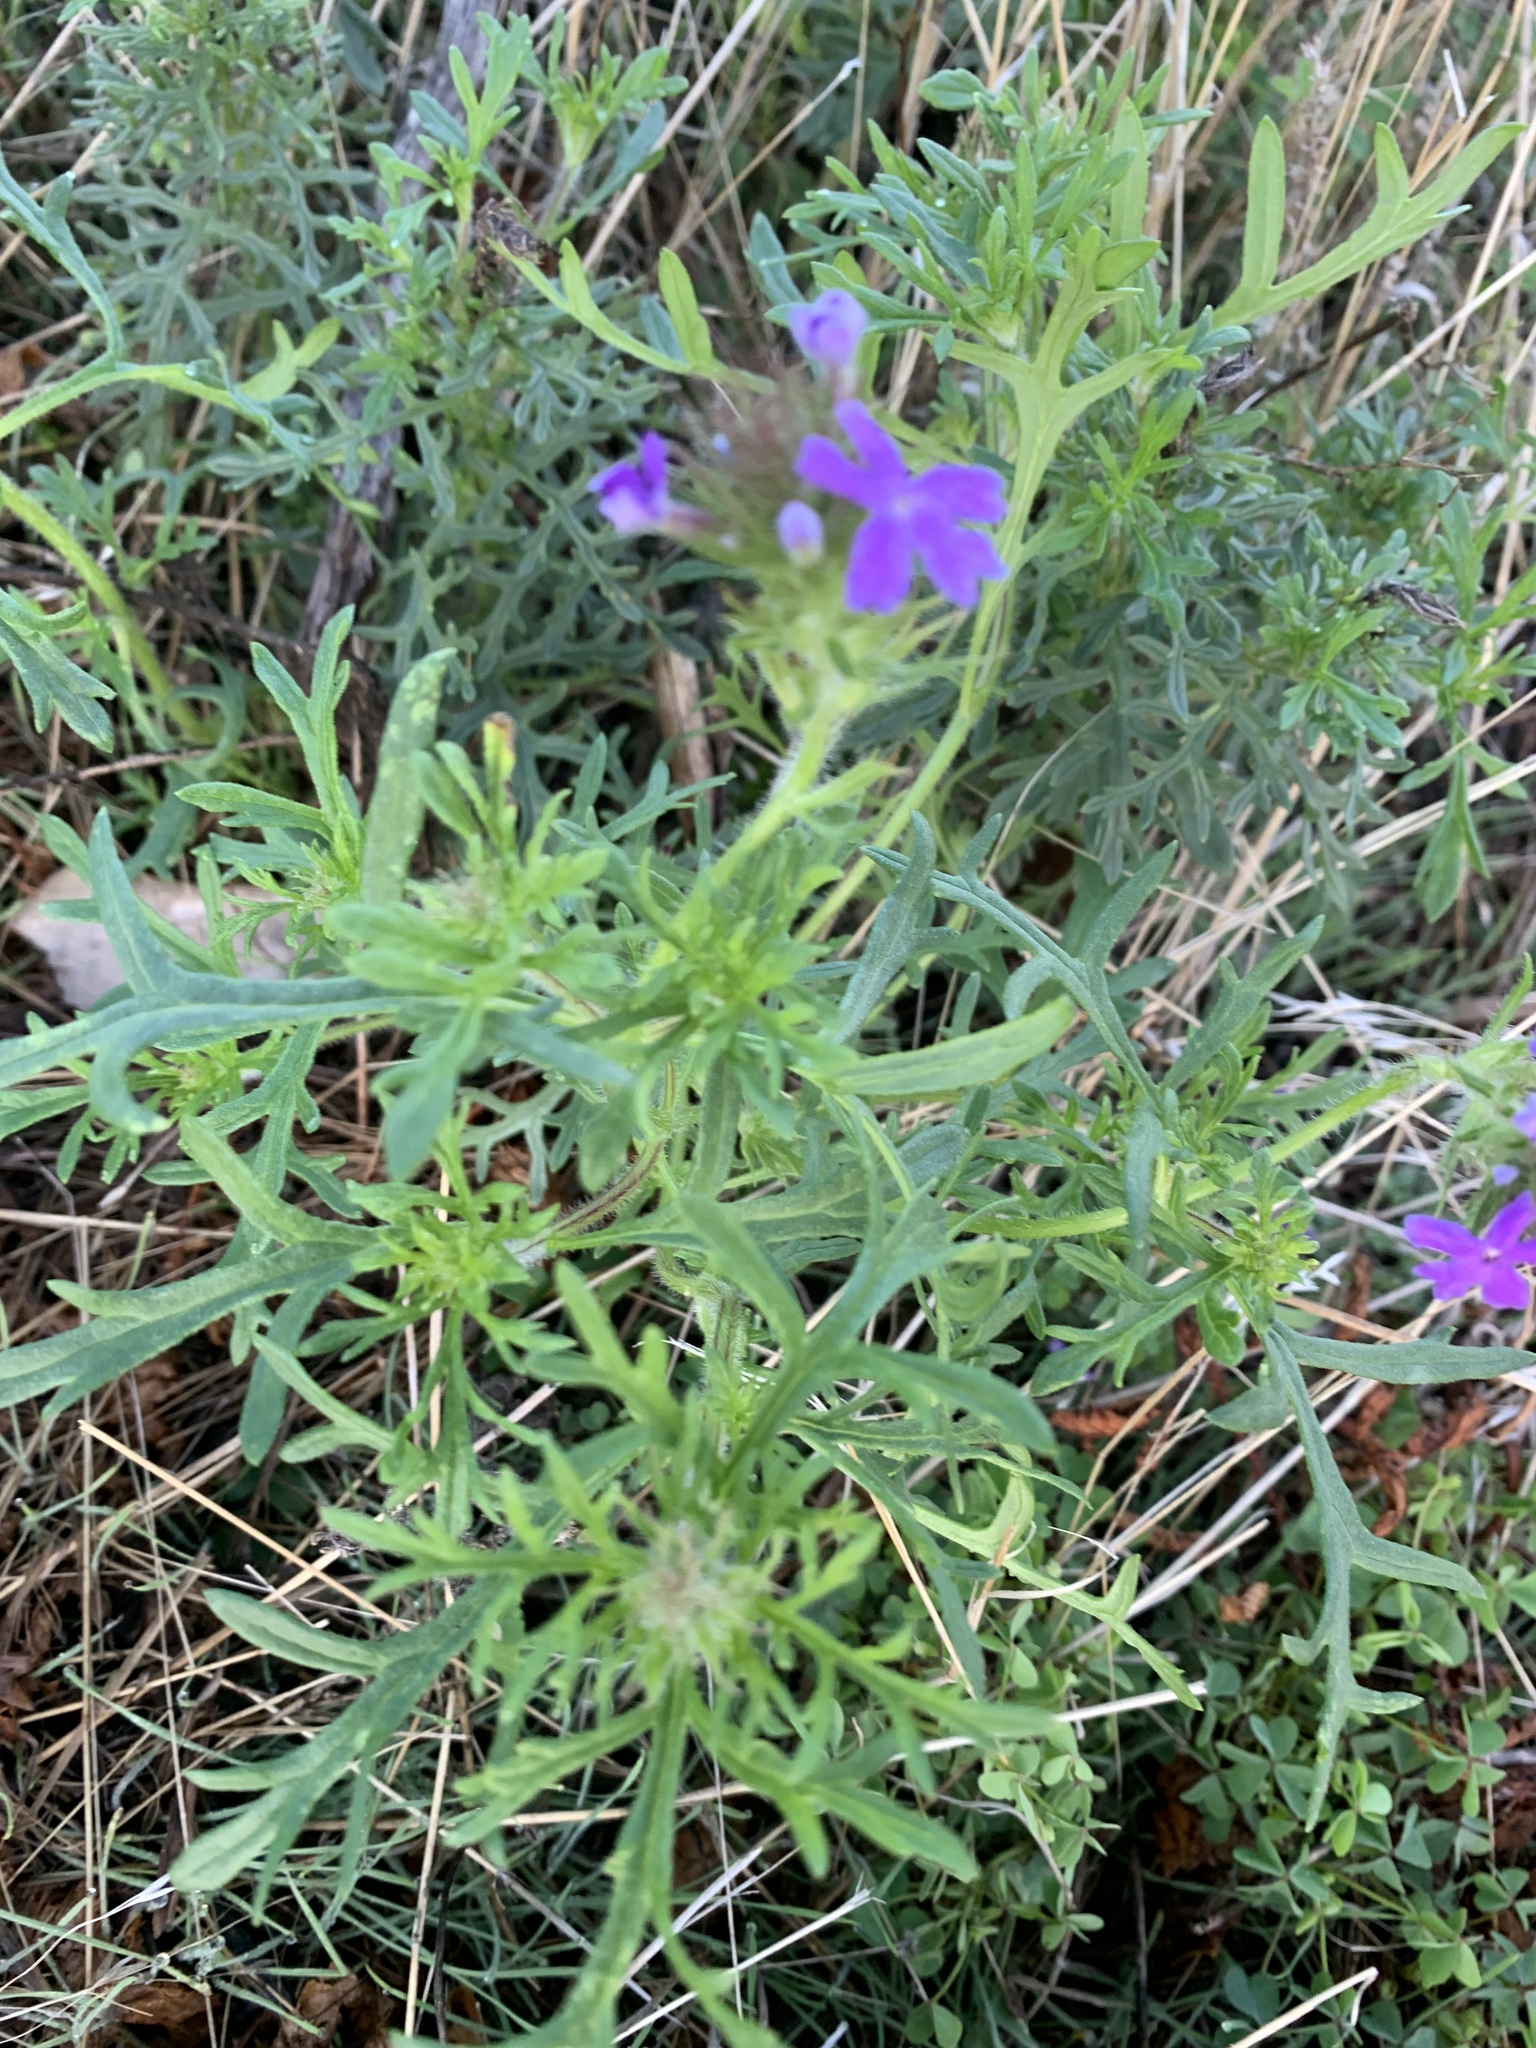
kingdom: Plantae
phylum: Tracheophyta
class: Magnoliopsida
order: Lamiales
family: Verbenaceae
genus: Verbena
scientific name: Verbena bipinnatifida
